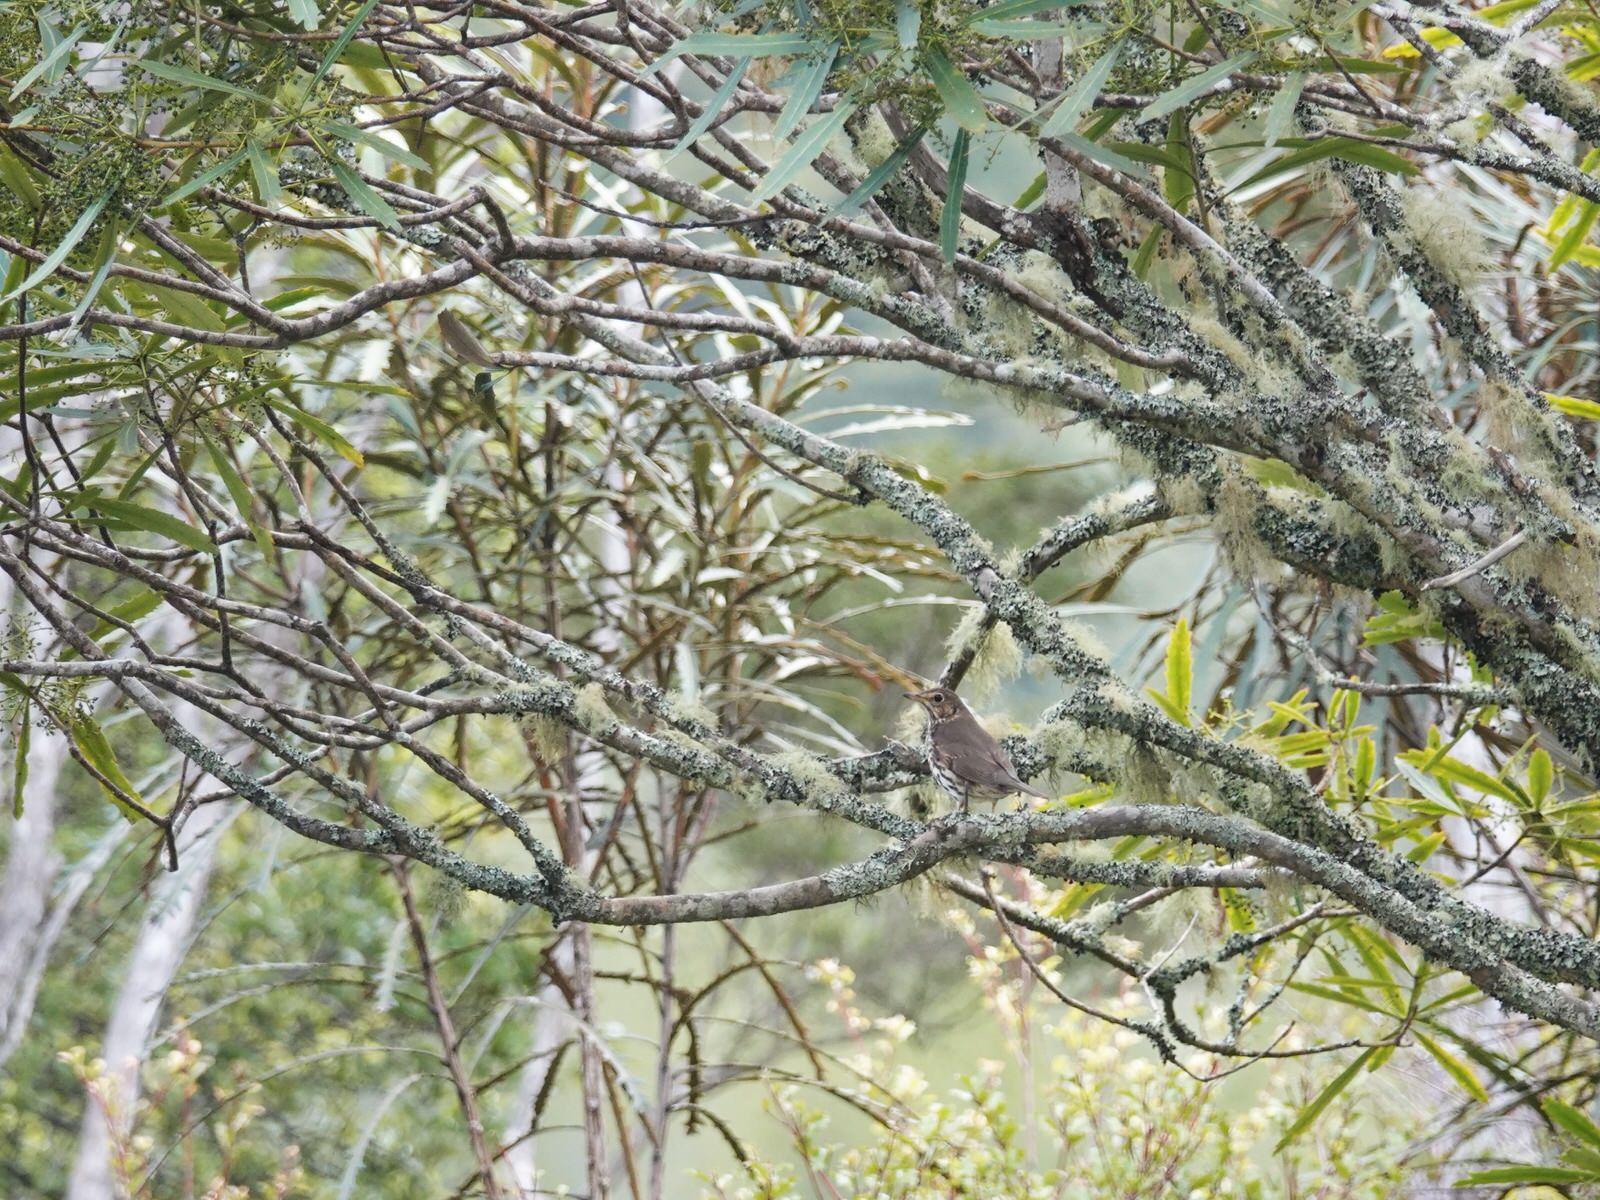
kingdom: Animalia
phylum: Chordata
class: Aves
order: Passeriformes
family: Turdidae
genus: Turdus
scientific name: Turdus philomelos
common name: Song thrush
